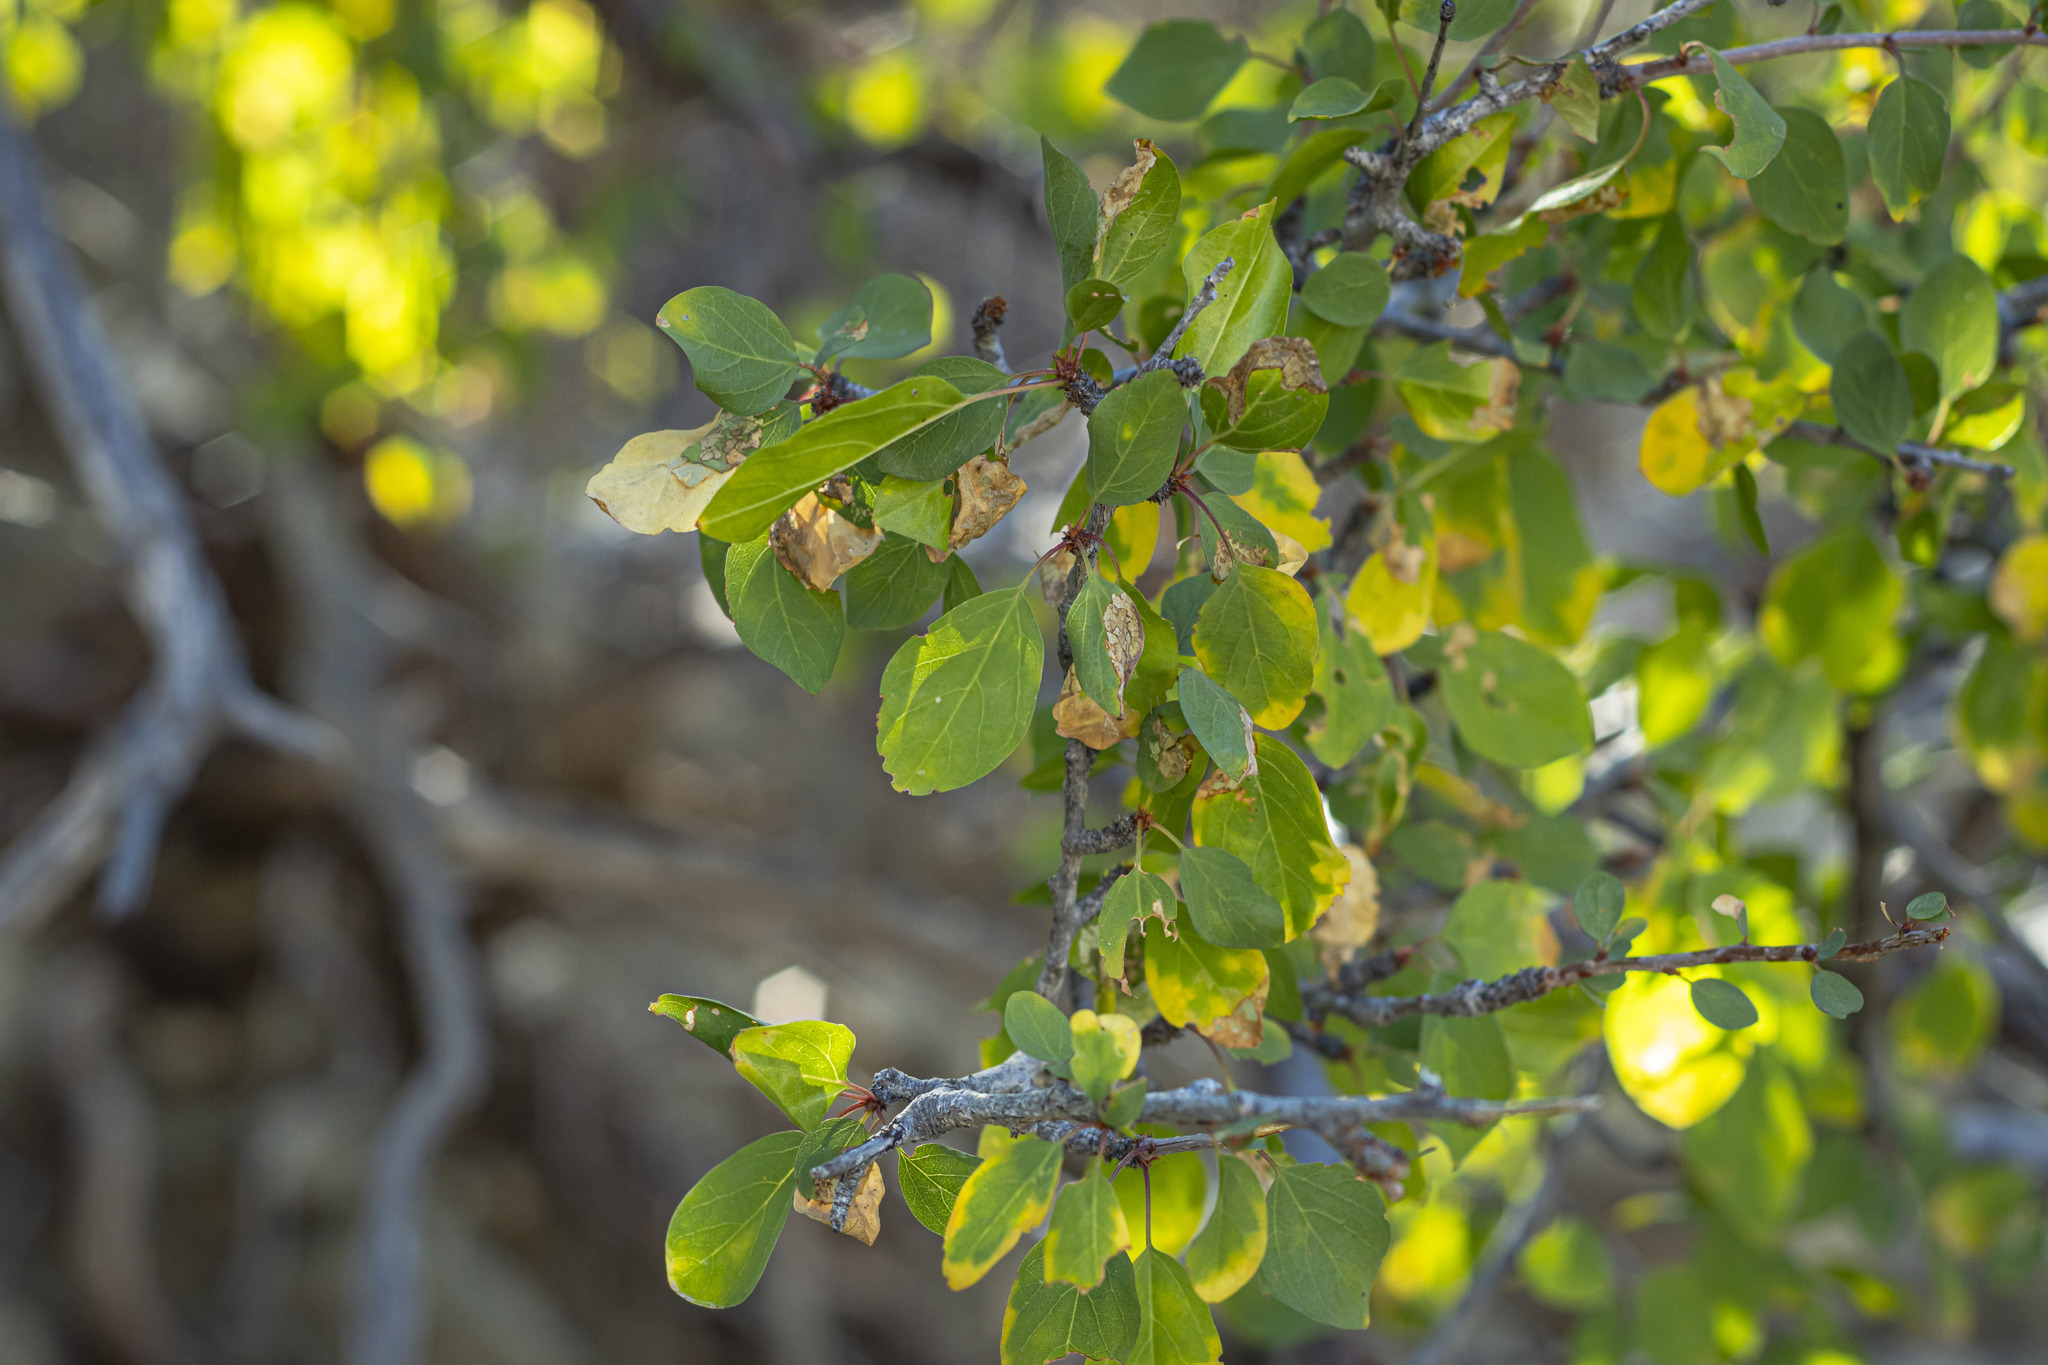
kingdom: Plantae
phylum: Tracheophyta
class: Magnoliopsida
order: Rosales
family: Rhamnaceae
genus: Colubrina
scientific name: Colubrina viridis
